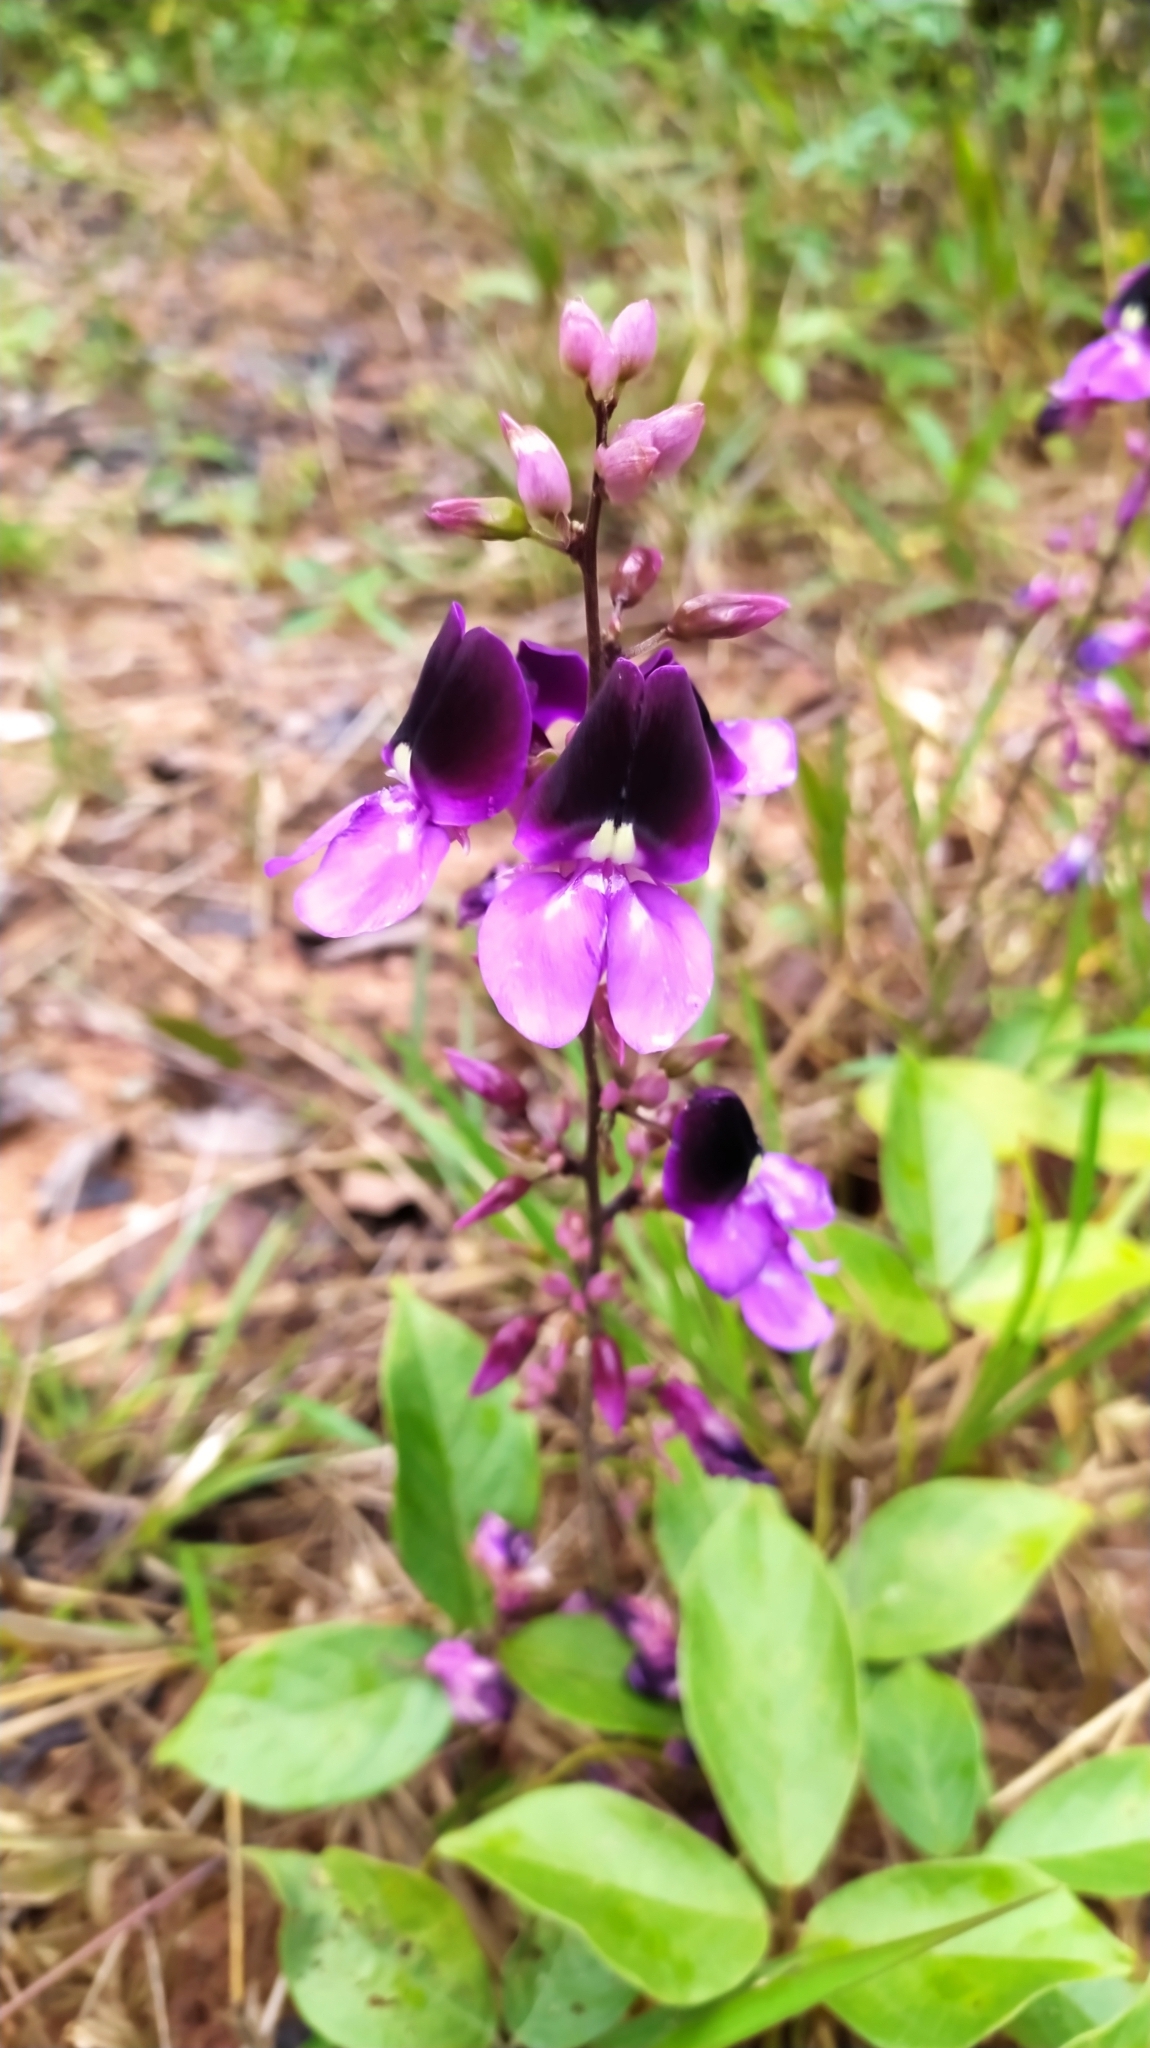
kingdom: Plantae
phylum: Tracheophyta
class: Magnoliopsida
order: Fabales
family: Fabaceae
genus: Dioclea
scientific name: Dioclea virgata
